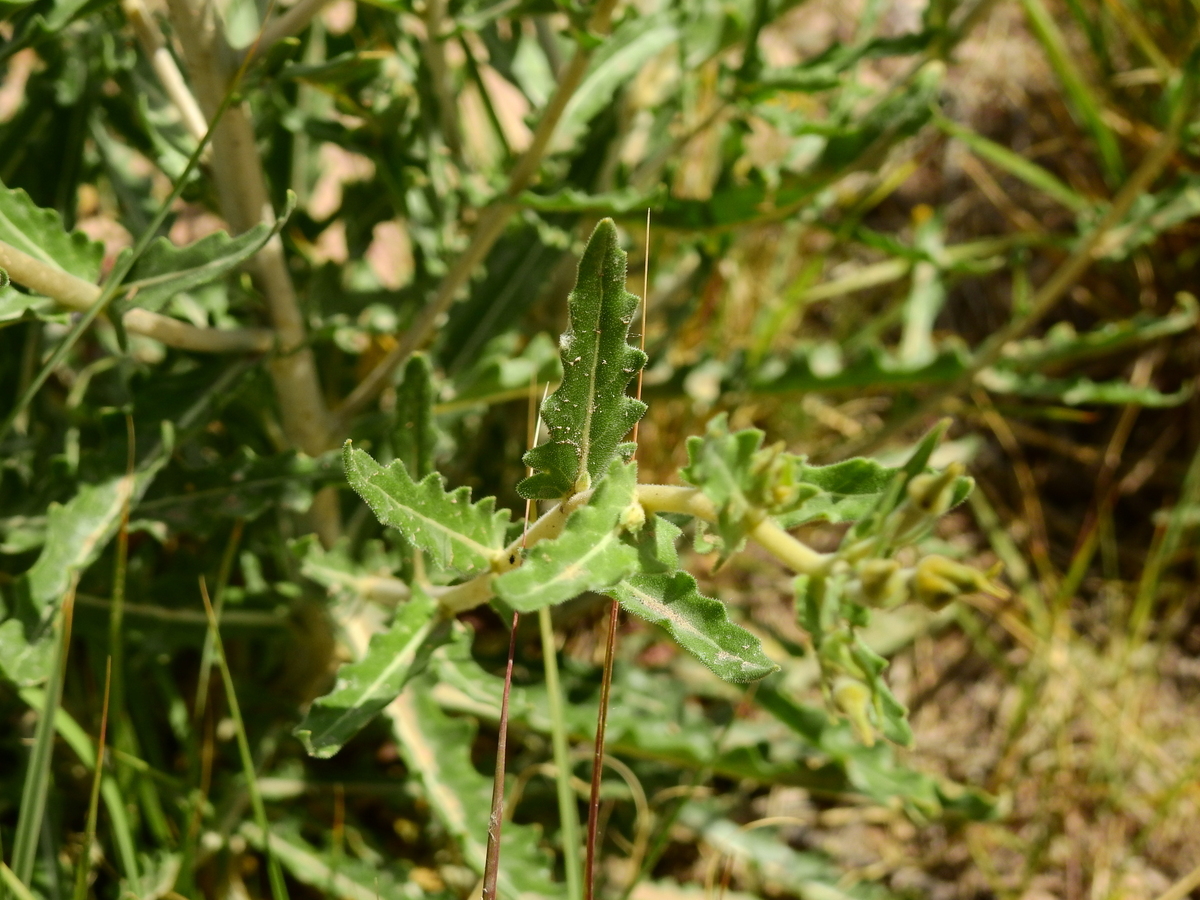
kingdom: Plantae
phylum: Tracheophyta
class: Magnoliopsida
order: Cornales
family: Loasaceae
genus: Mentzelia
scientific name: Mentzelia albescens
